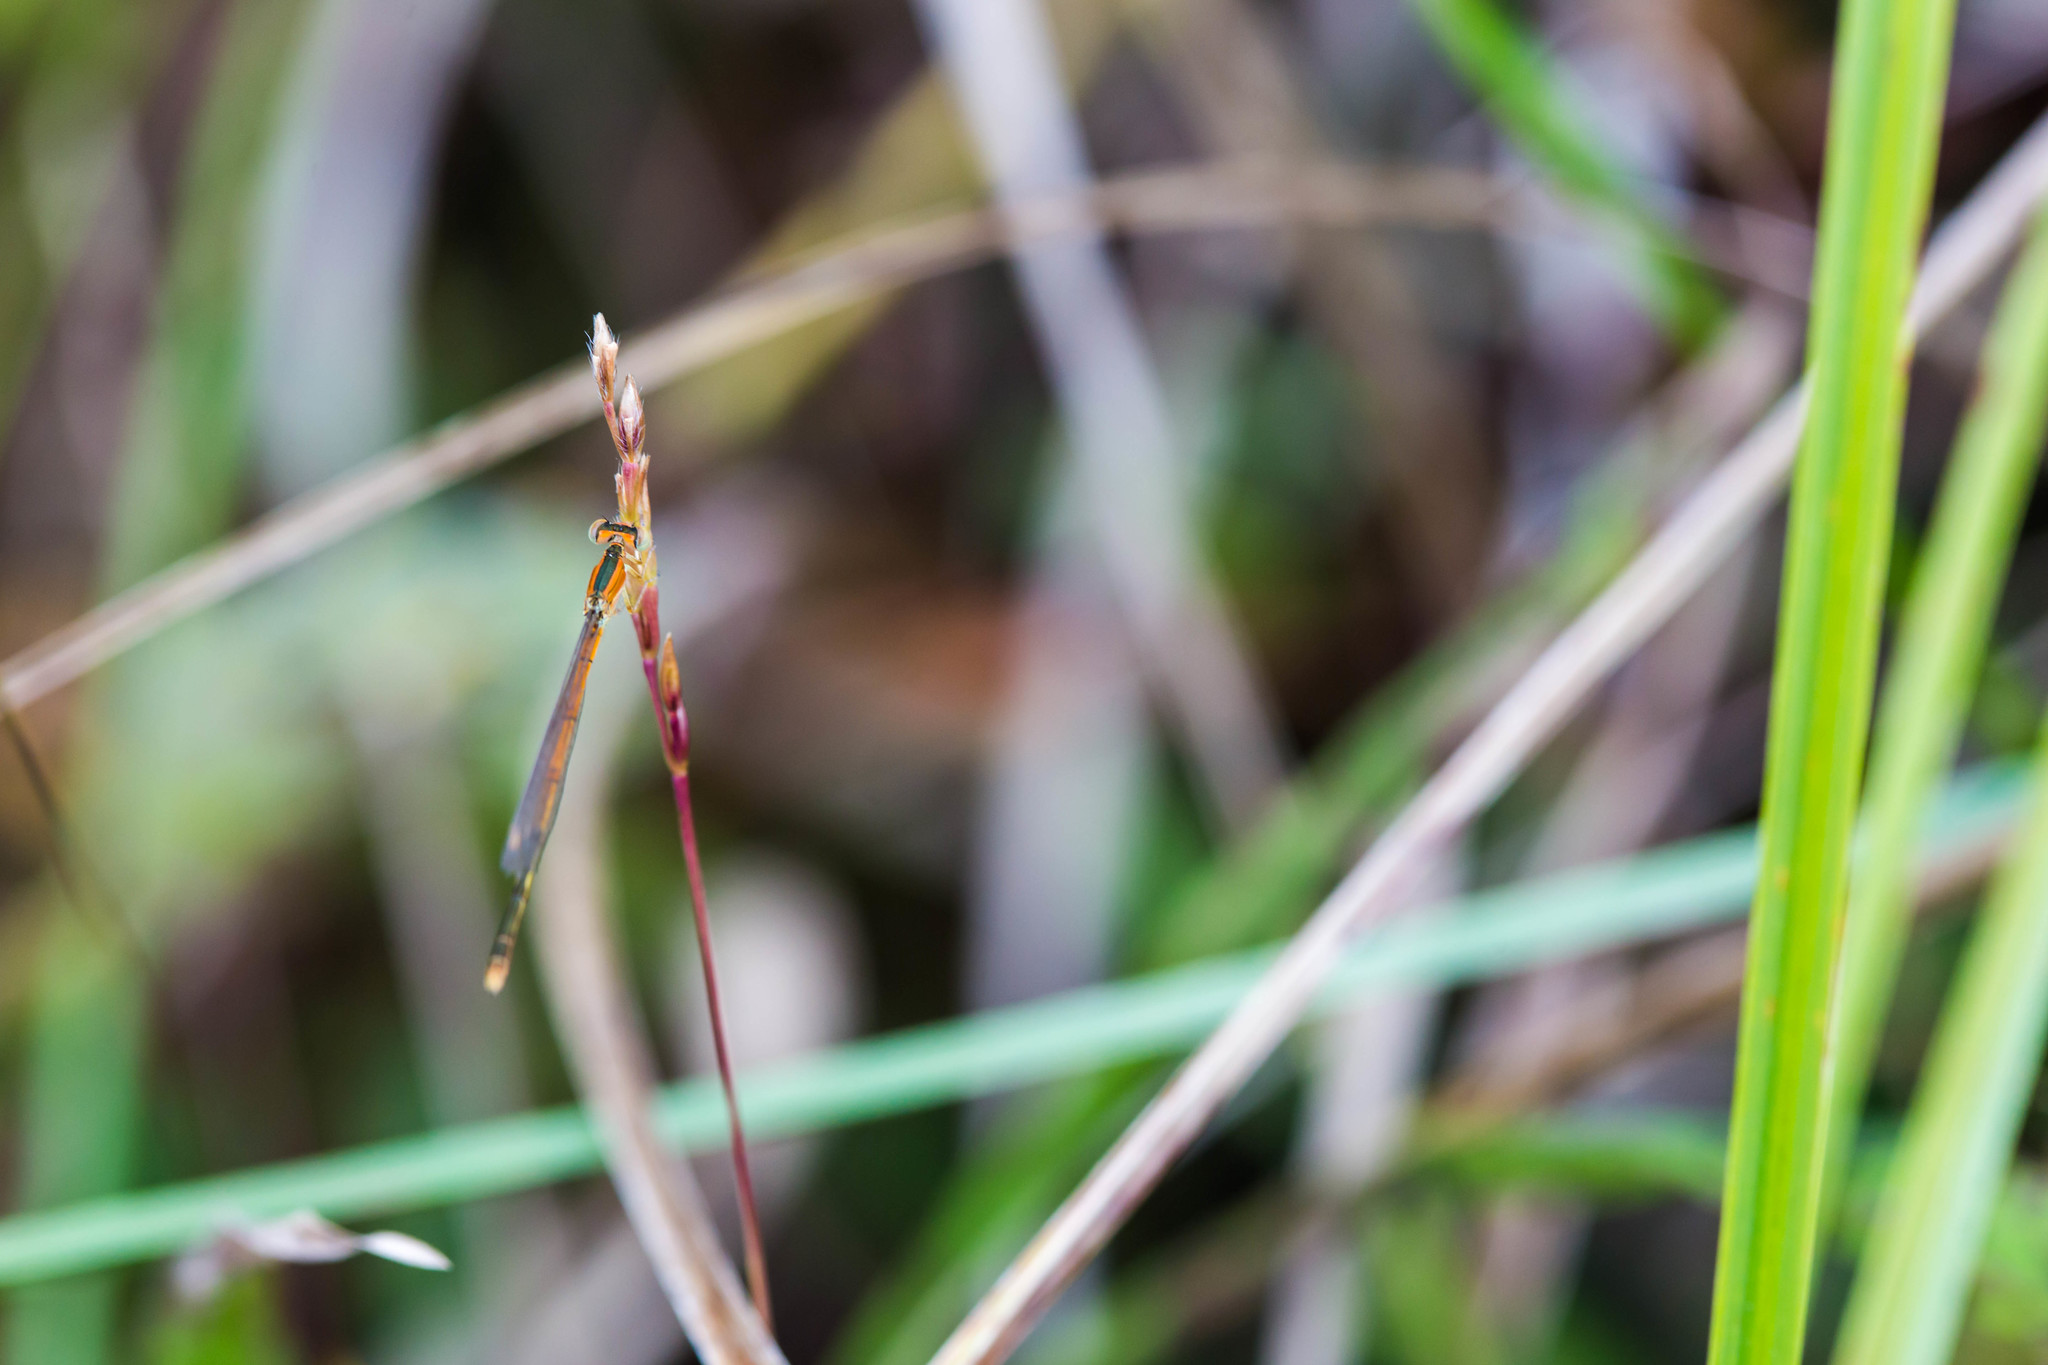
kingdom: Animalia
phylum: Arthropoda
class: Insecta
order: Odonata
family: Coenagrionidae
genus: Ischnura
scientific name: Ischnura hastata
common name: Citrine forktail
